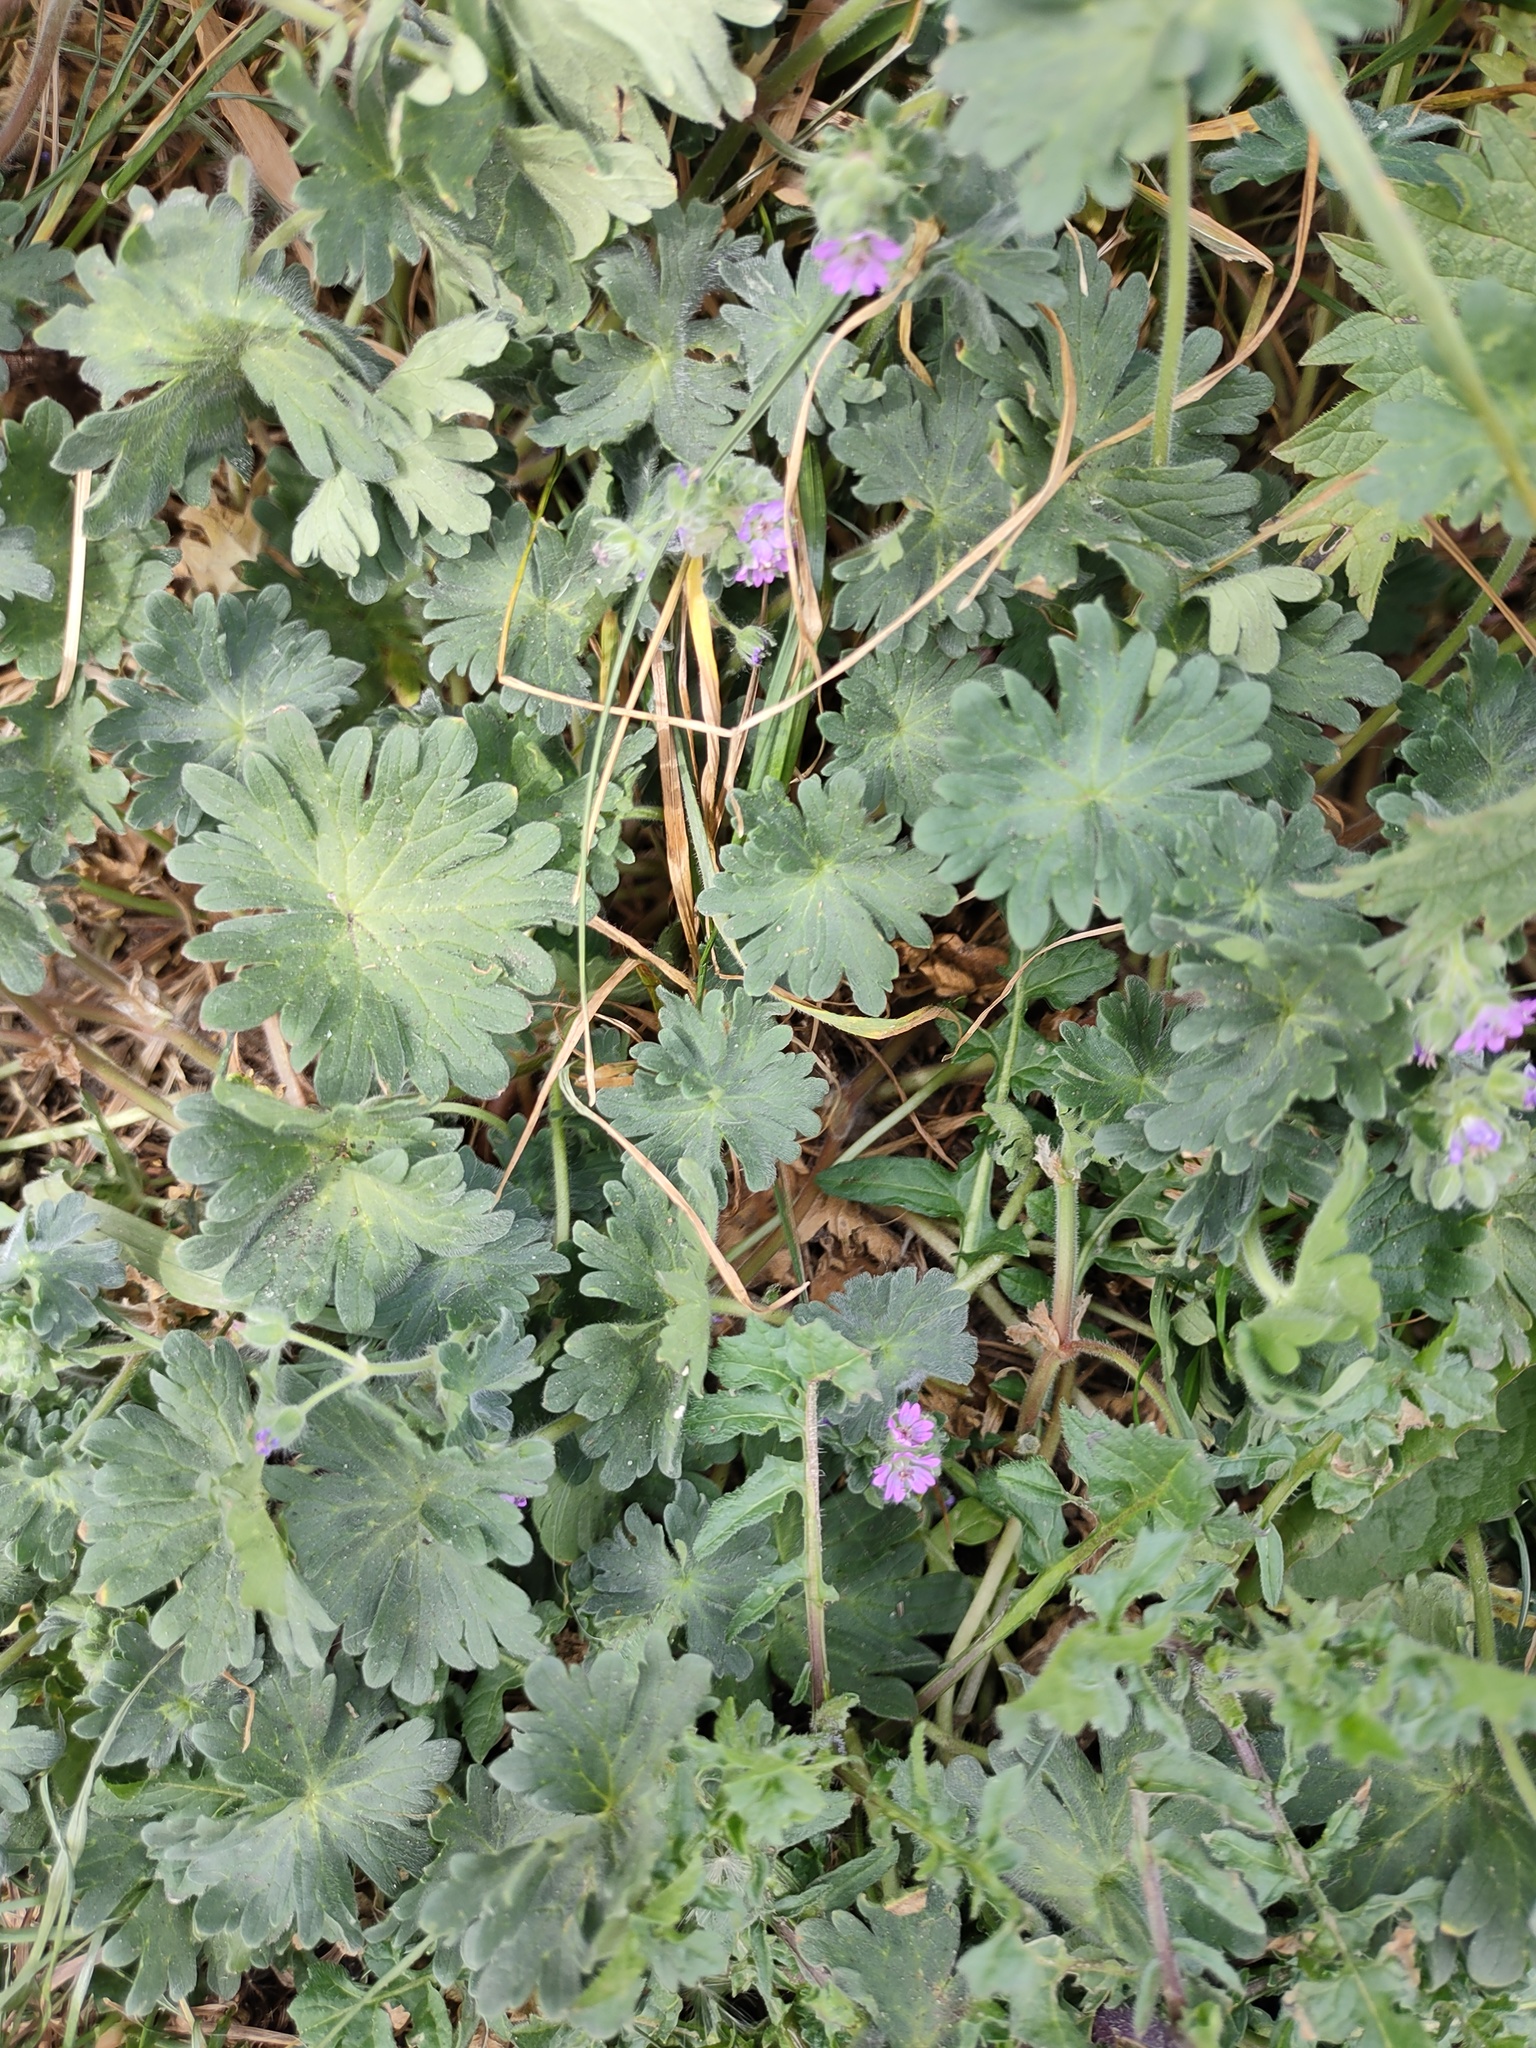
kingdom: Plantae
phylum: Tracheophyta
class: Magnoliopsida
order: Geraniales
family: Geraniaceae
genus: Geranium
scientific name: Geranium molle
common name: Dove's-foot crane's-bill
